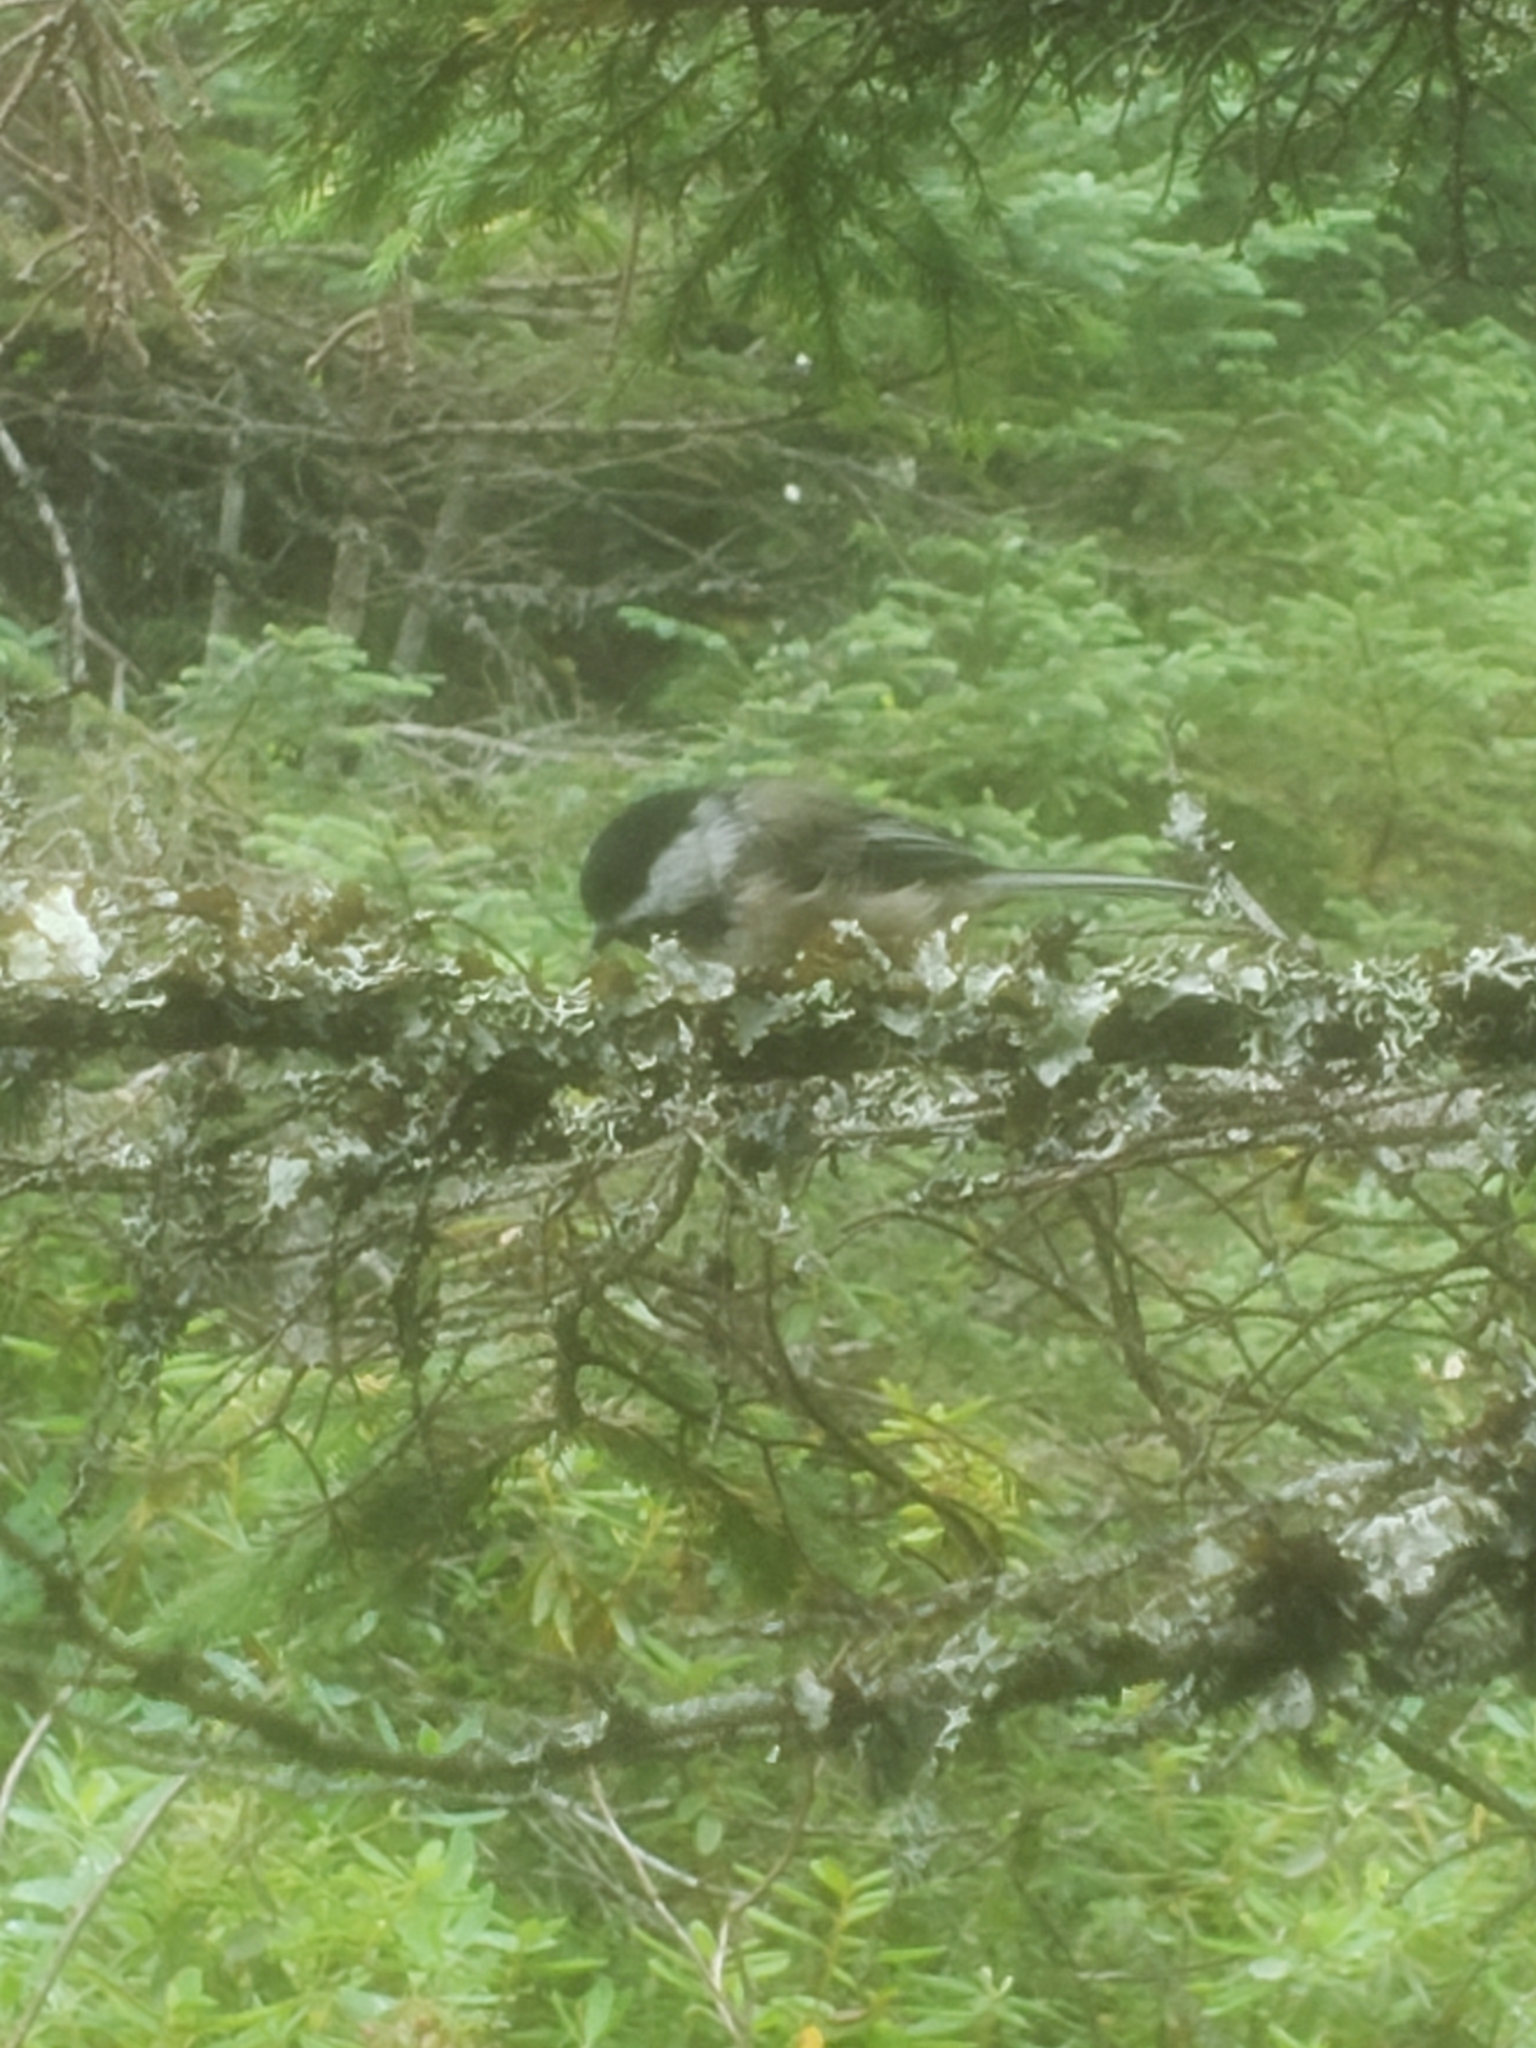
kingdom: Animalia
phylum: Chordata
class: Aves
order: Passeriformes
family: Paridae
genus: Poecile
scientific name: Poecile atricapillus
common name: Black-capped chickadee
